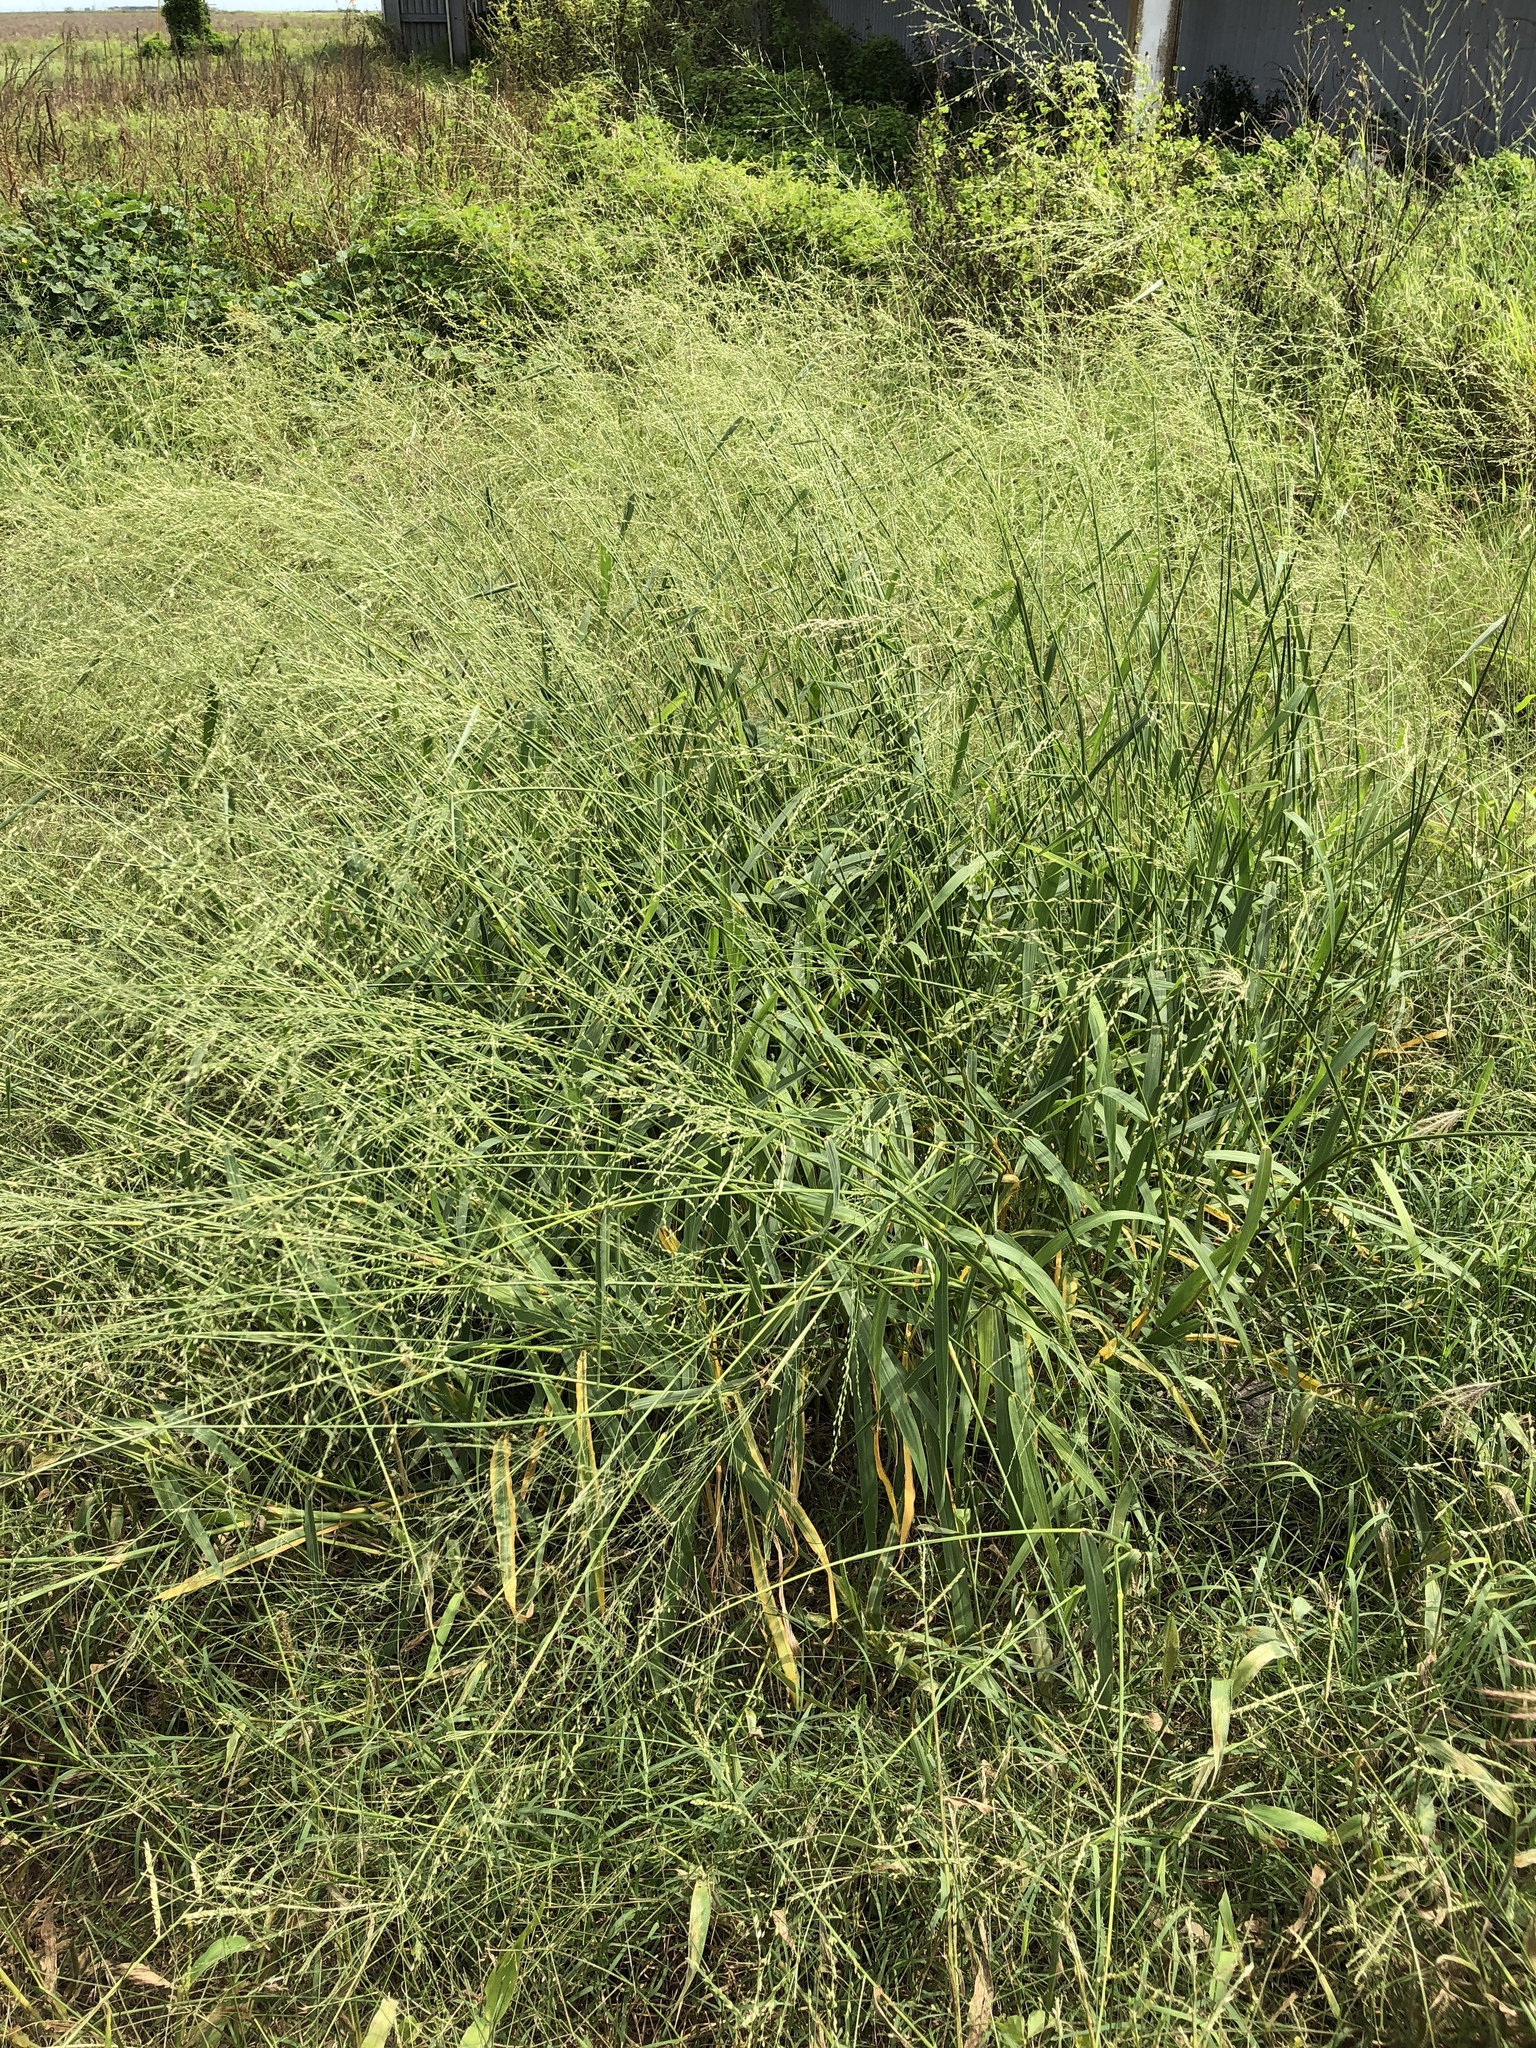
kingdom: Plantae
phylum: Tracheophyta
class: Liliopsida
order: Poales
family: Poaceae
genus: Megathyrsus
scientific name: Megathyrsus maximus
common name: Guineagrass
